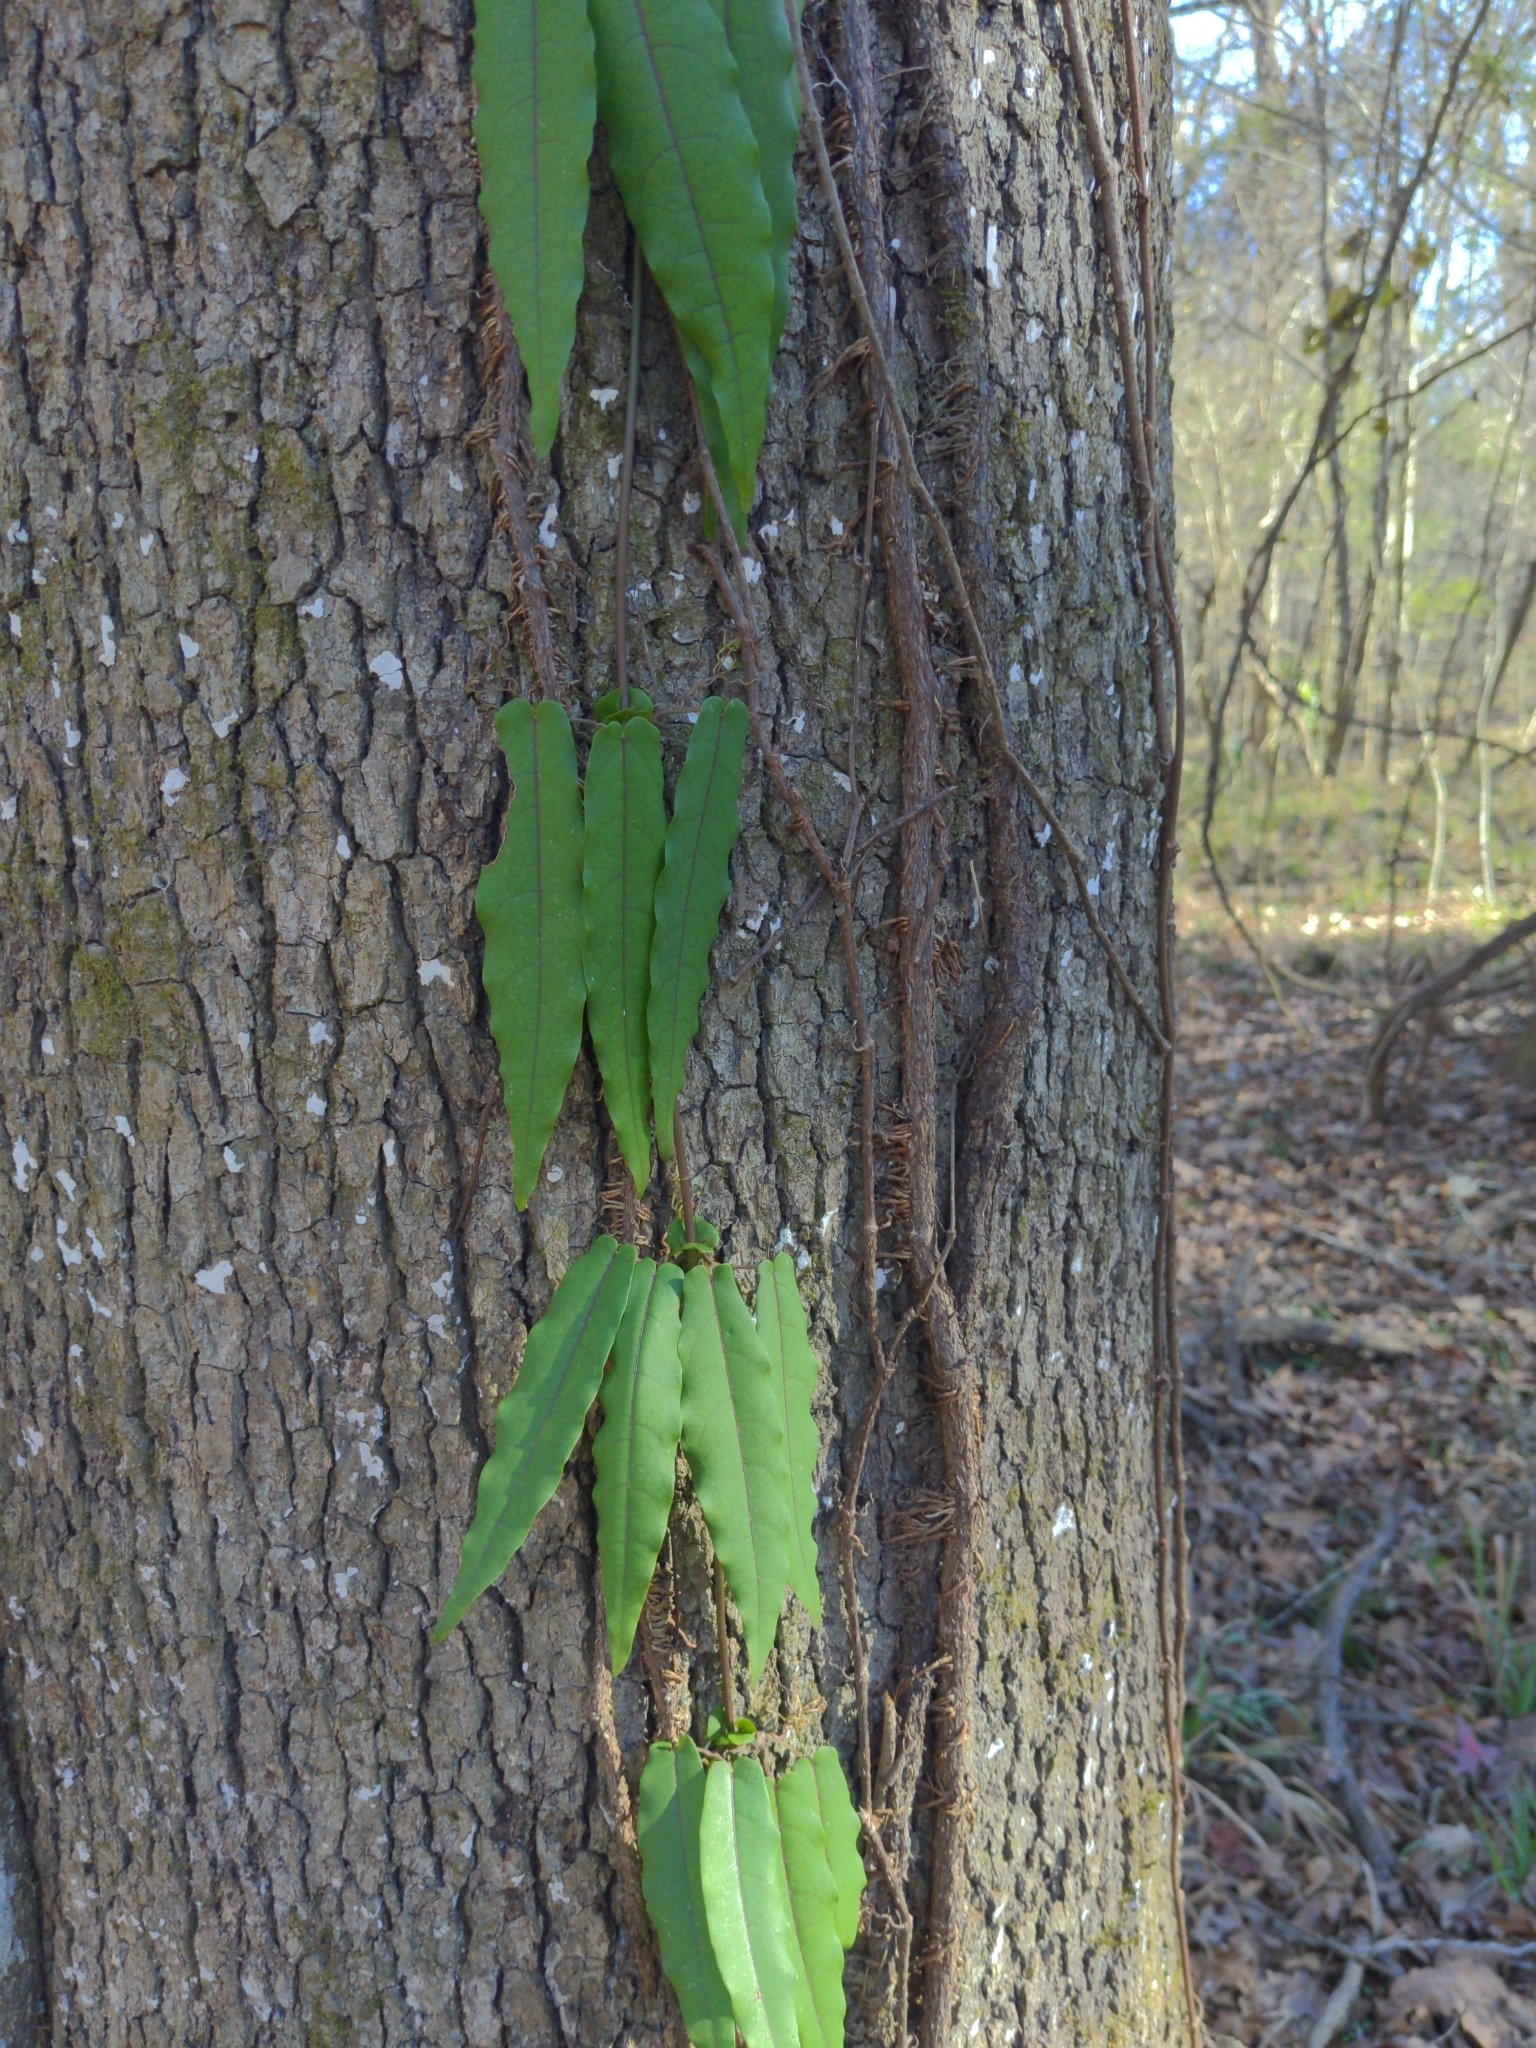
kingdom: Plantae
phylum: Tracheophyta
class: Magnoliopsida
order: Lamiales
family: Bignoniaceae
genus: Bignonia
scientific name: Bignonia capreolata
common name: Crossvine
